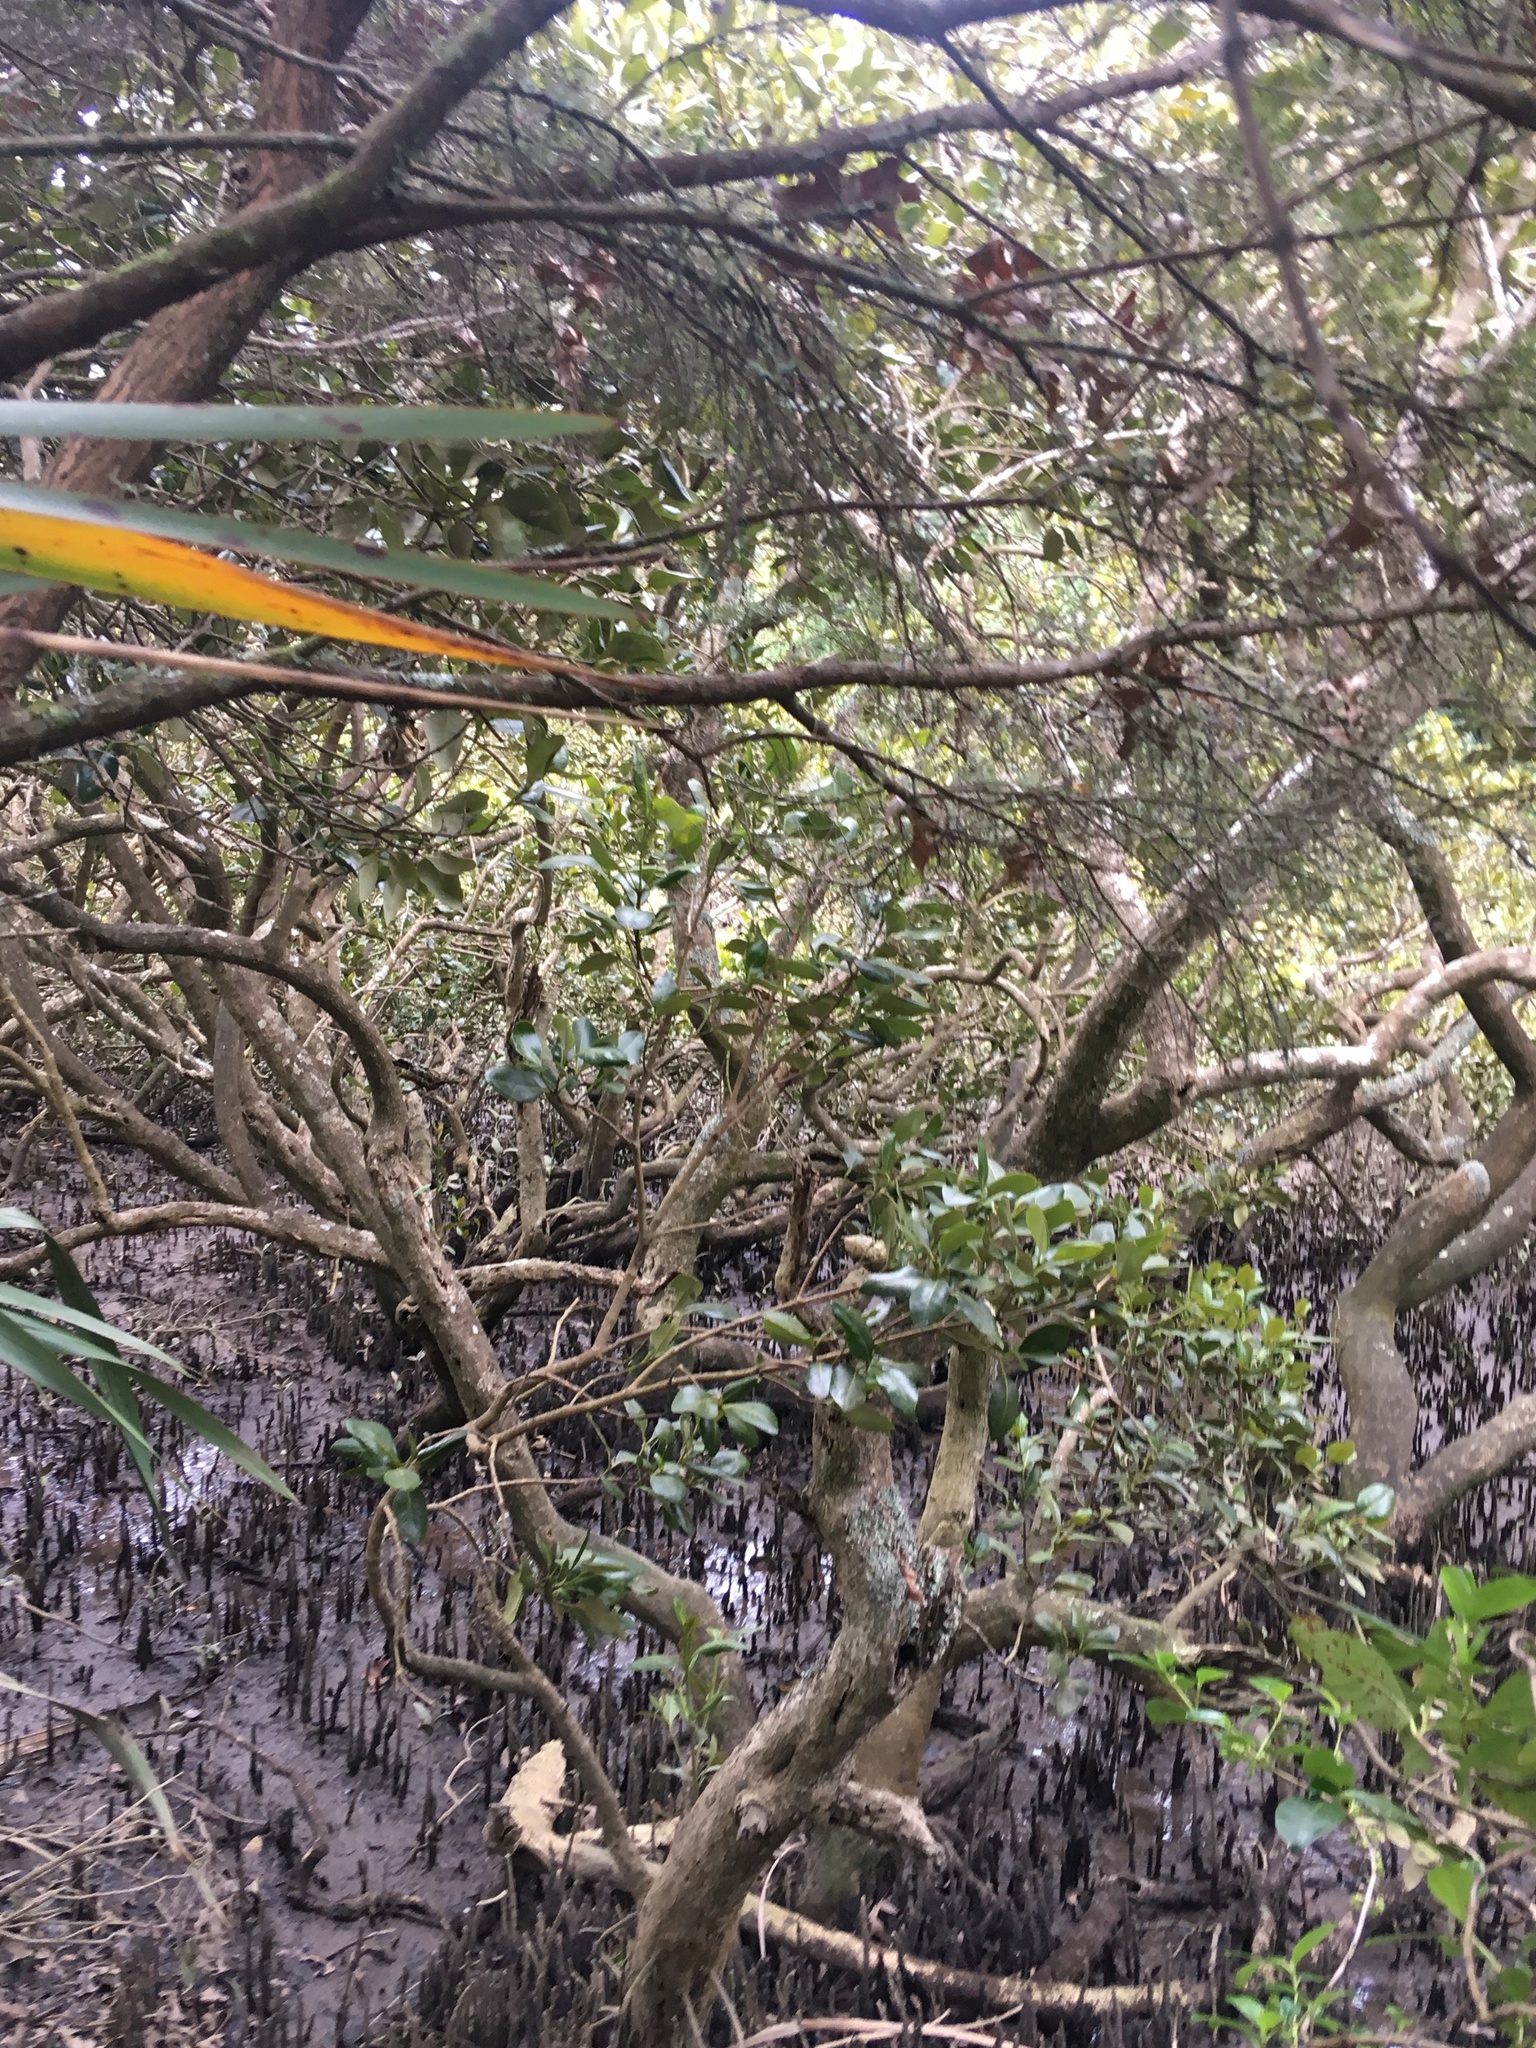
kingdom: Plantae
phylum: Tracheophyta
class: Magnoliopsida
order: Lamiales
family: Acanthaceae
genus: Avicennia
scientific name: Avicennia marina
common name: Gray mangrove
